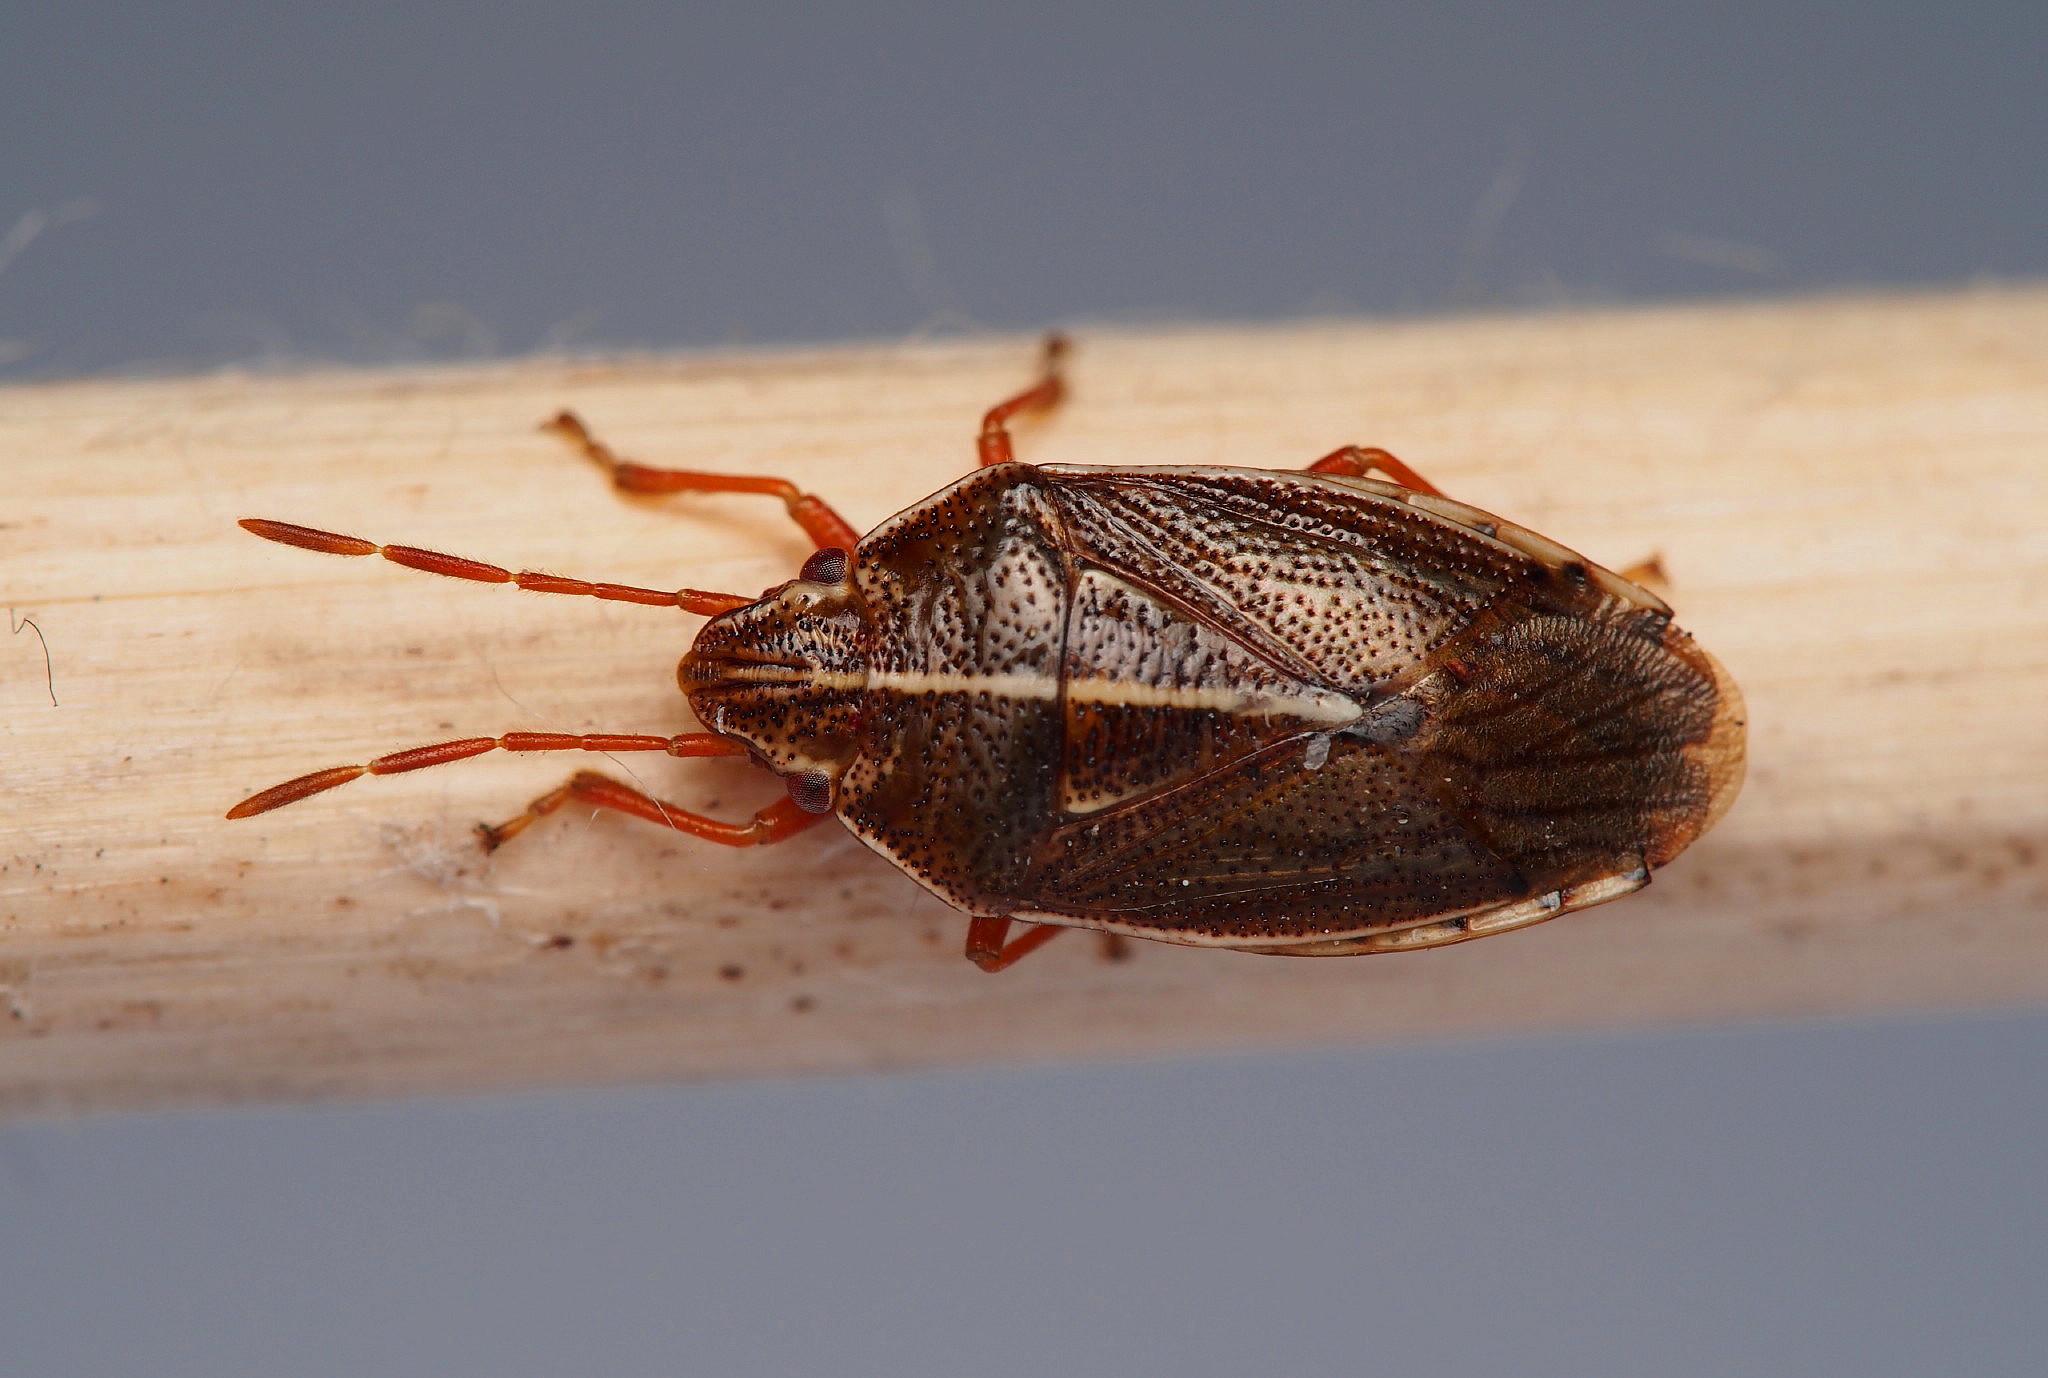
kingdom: Animalia
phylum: Arthropoda
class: Insecta
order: Hemiptera
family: Acanthosomatidae
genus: Rhopalimorpha
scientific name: Rhopalimorpha lineolaris
